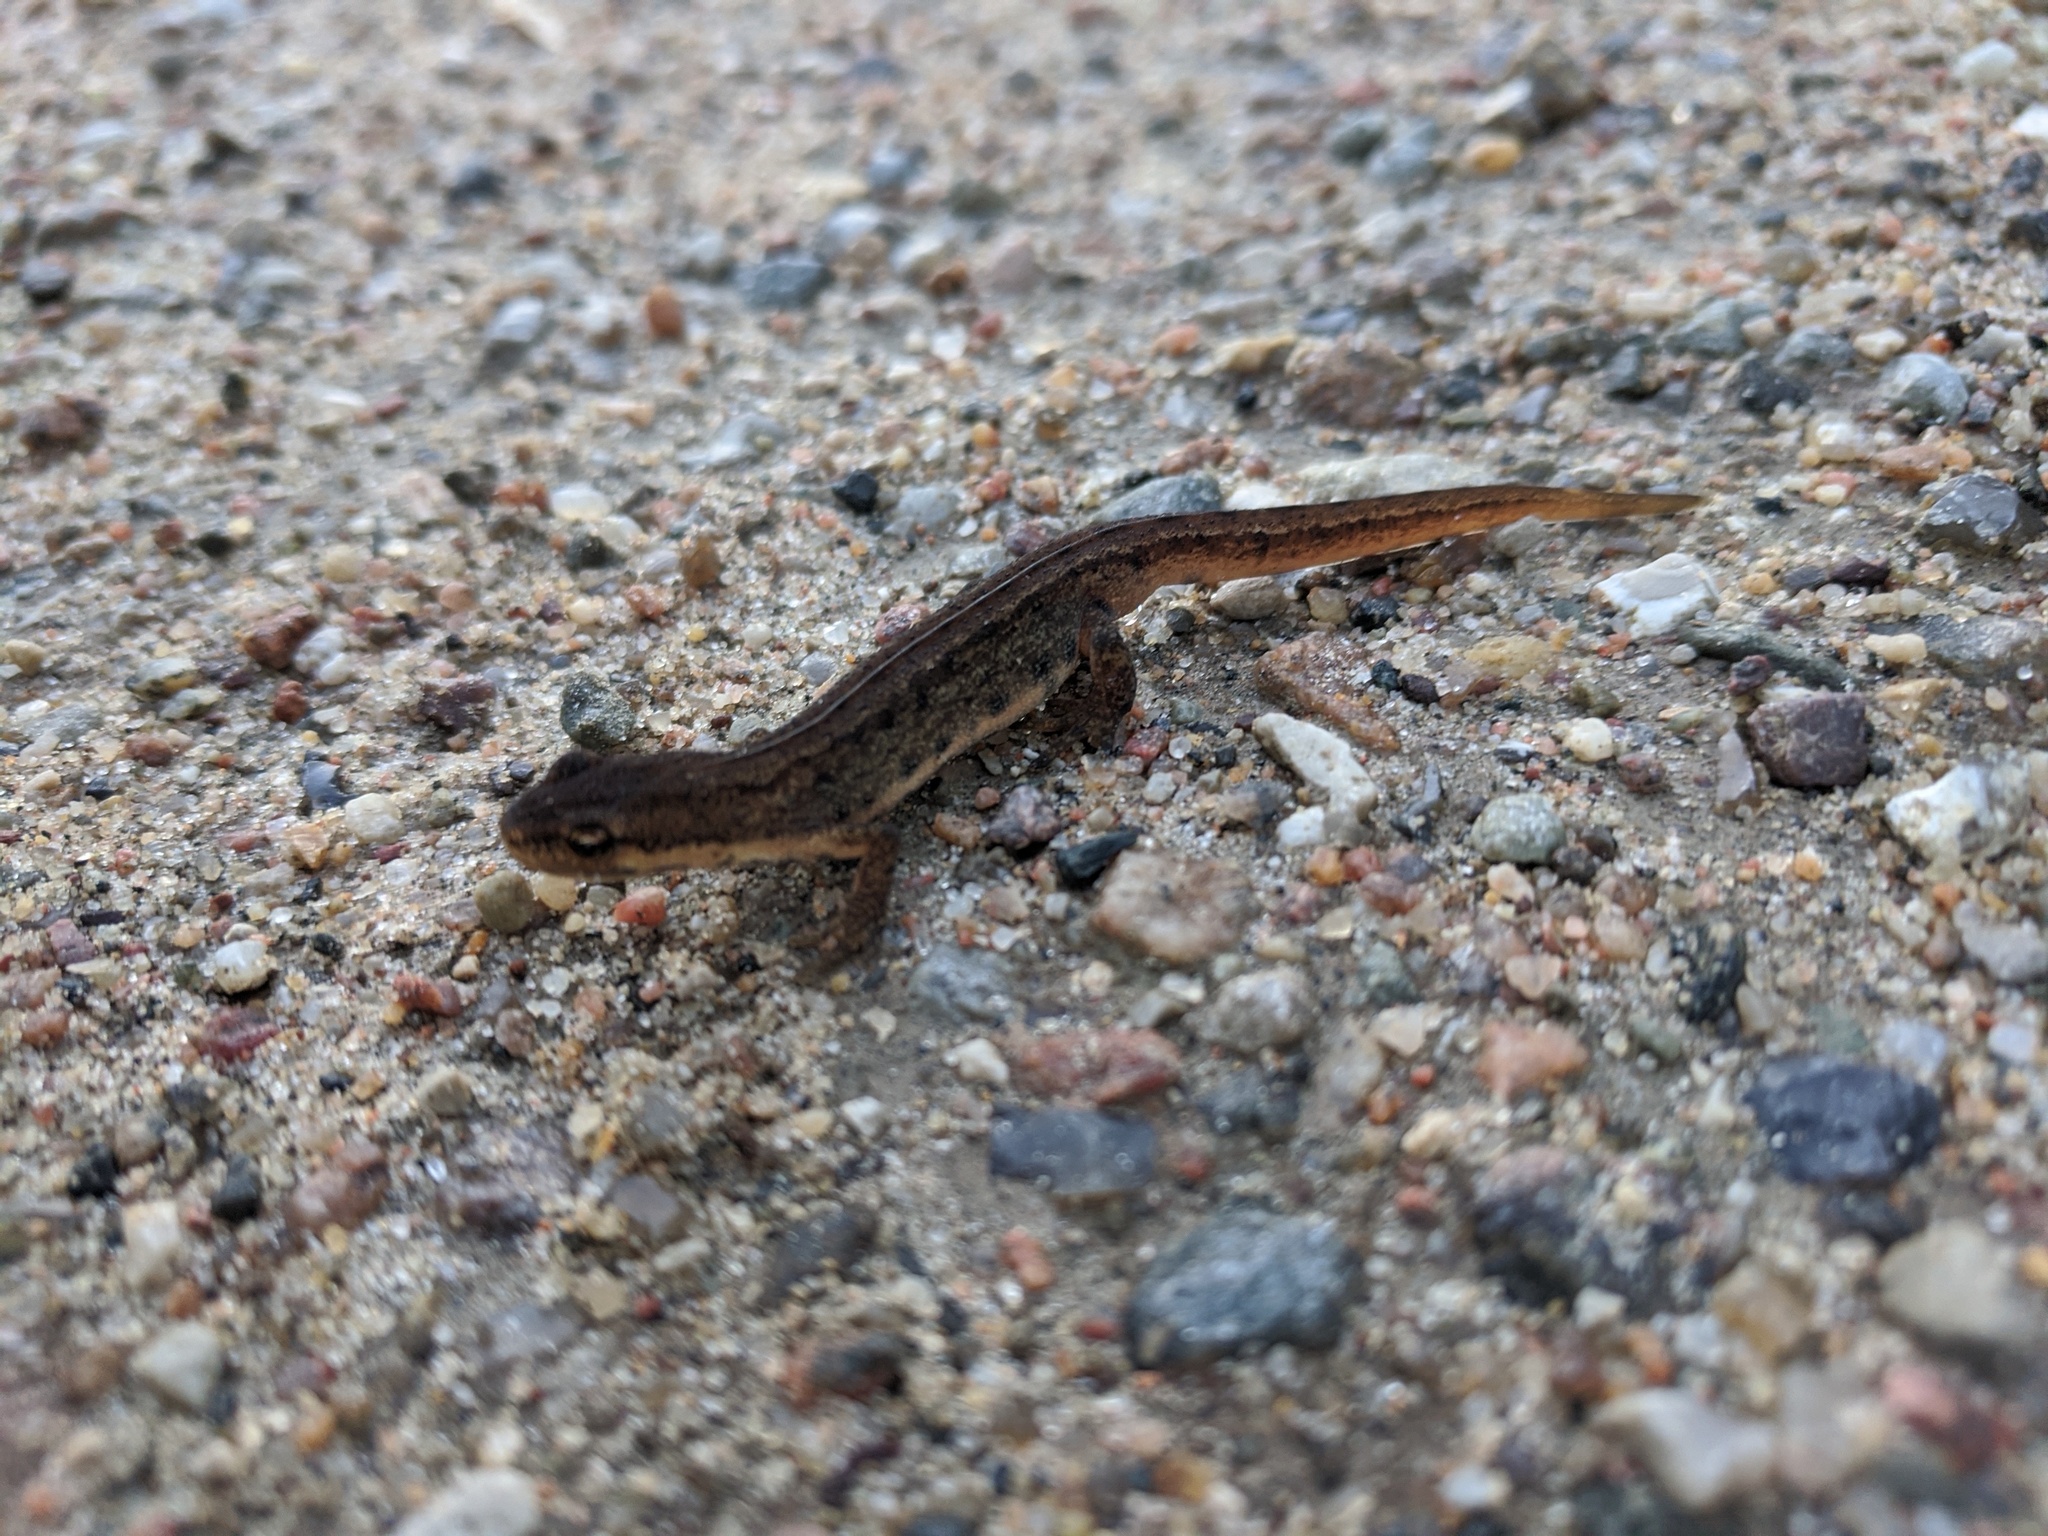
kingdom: Animalia
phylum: Chordata
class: Amphibia
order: Caudata
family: Salamandridae
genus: Lissotriton
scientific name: Lissotriton vulgaris
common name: Smooth newt
